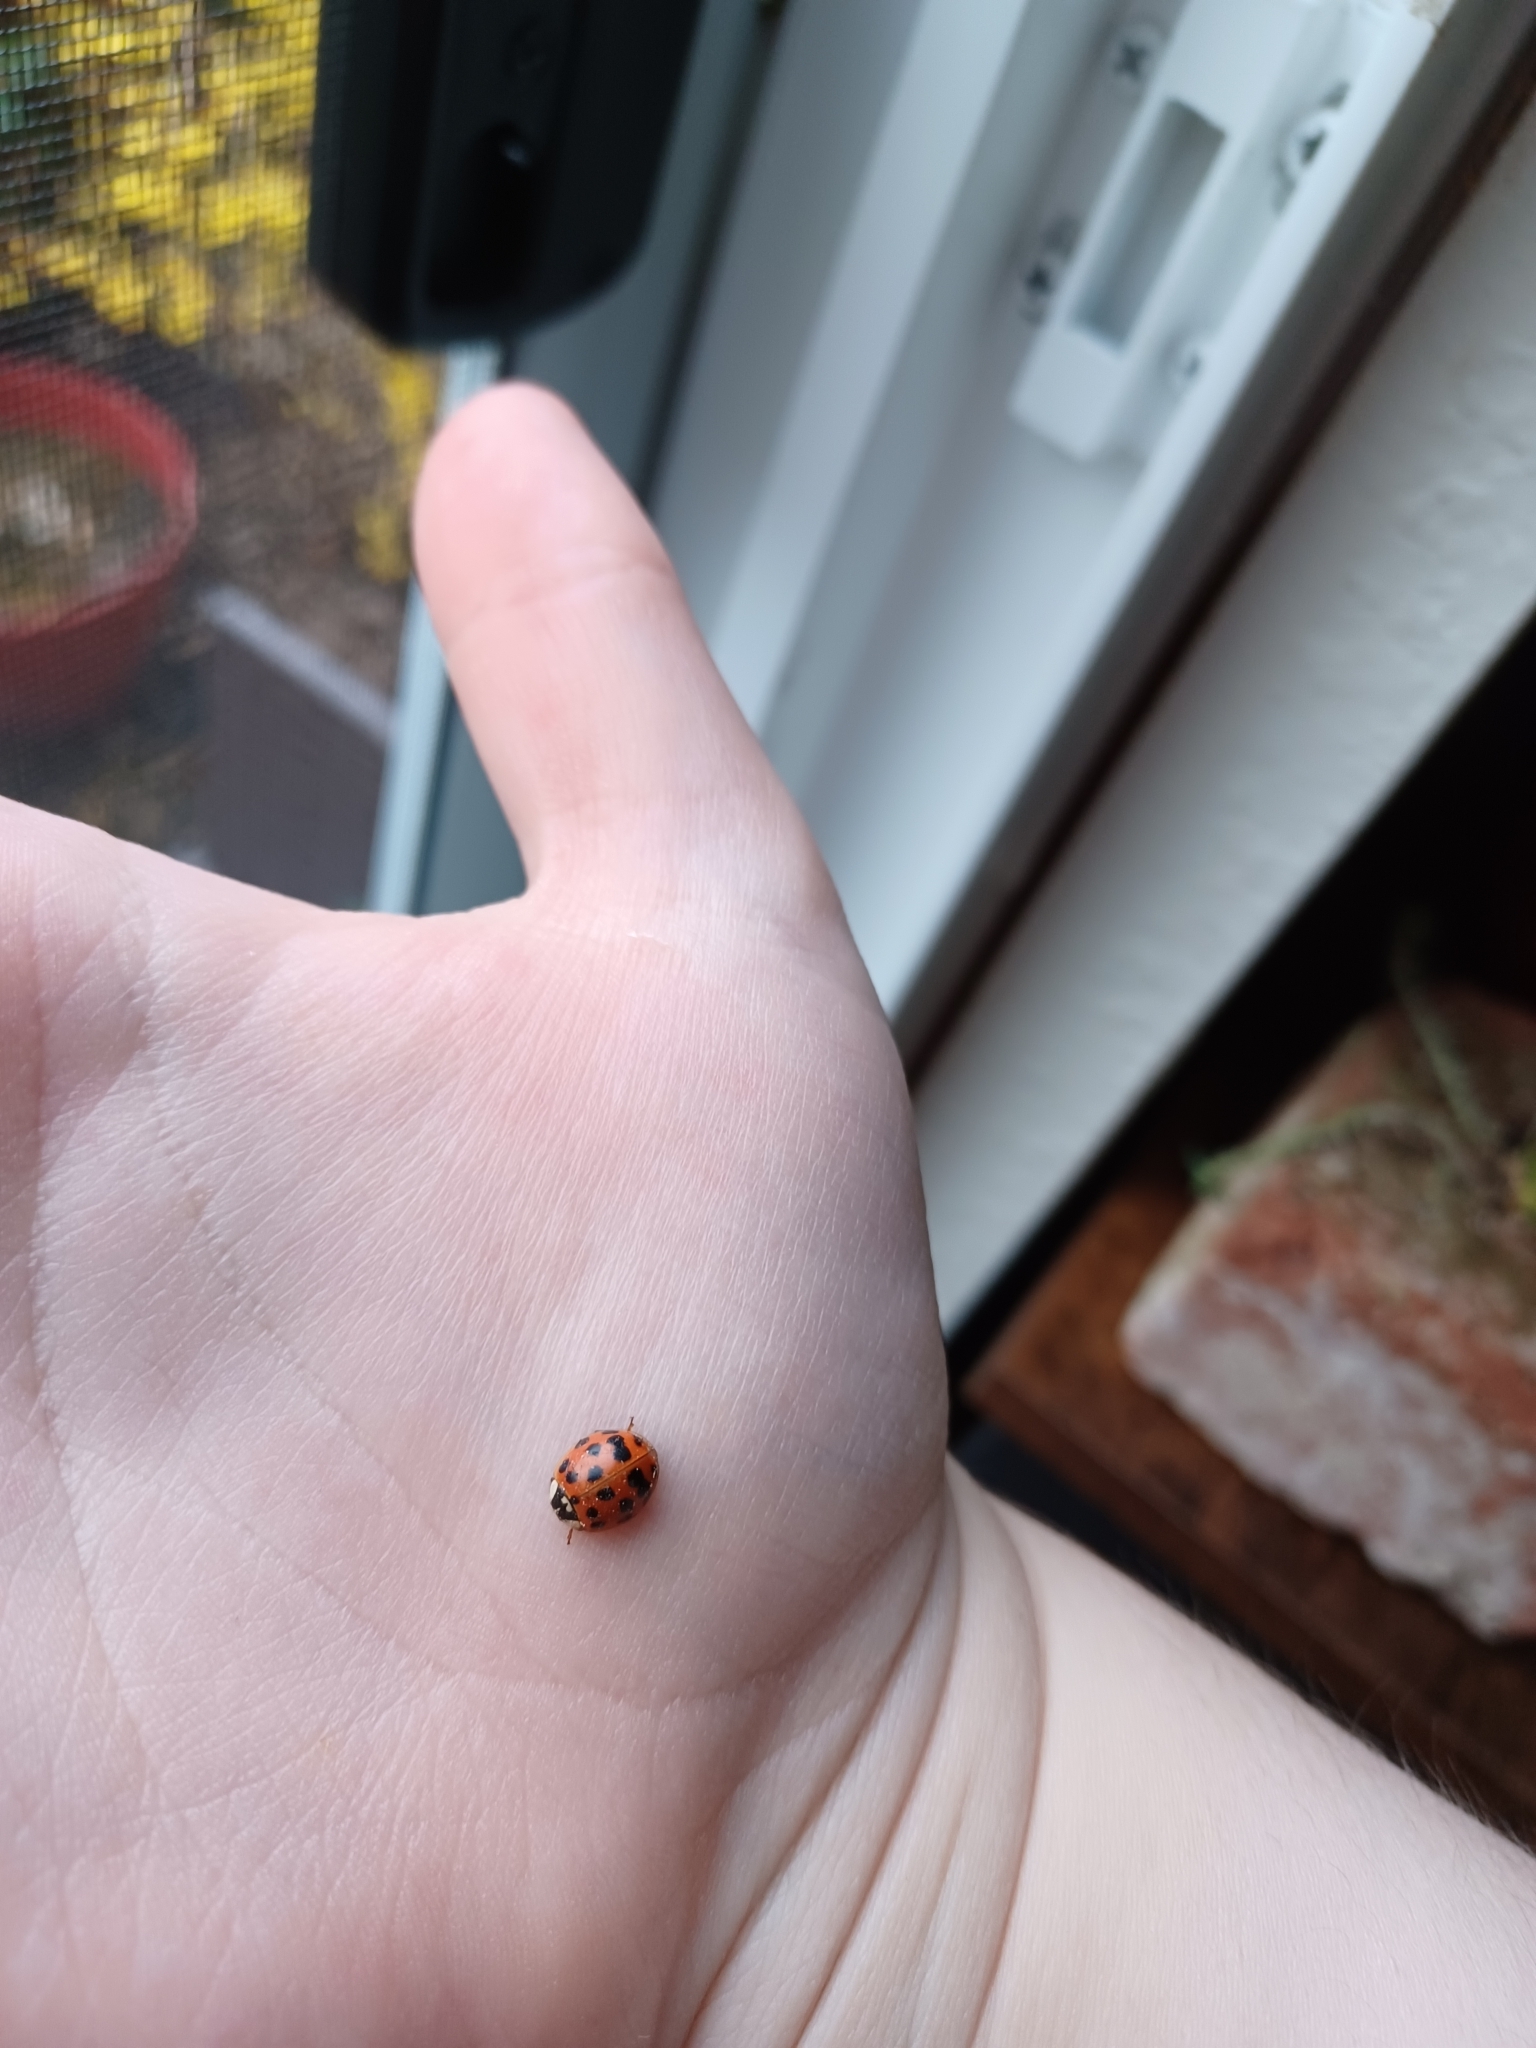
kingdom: Animalia
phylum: Arthropoda
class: Insecta
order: Coleoptera
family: Coccinellidae
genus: Harmonia
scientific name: Harmonia axyridis
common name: Harlequin ladybird
